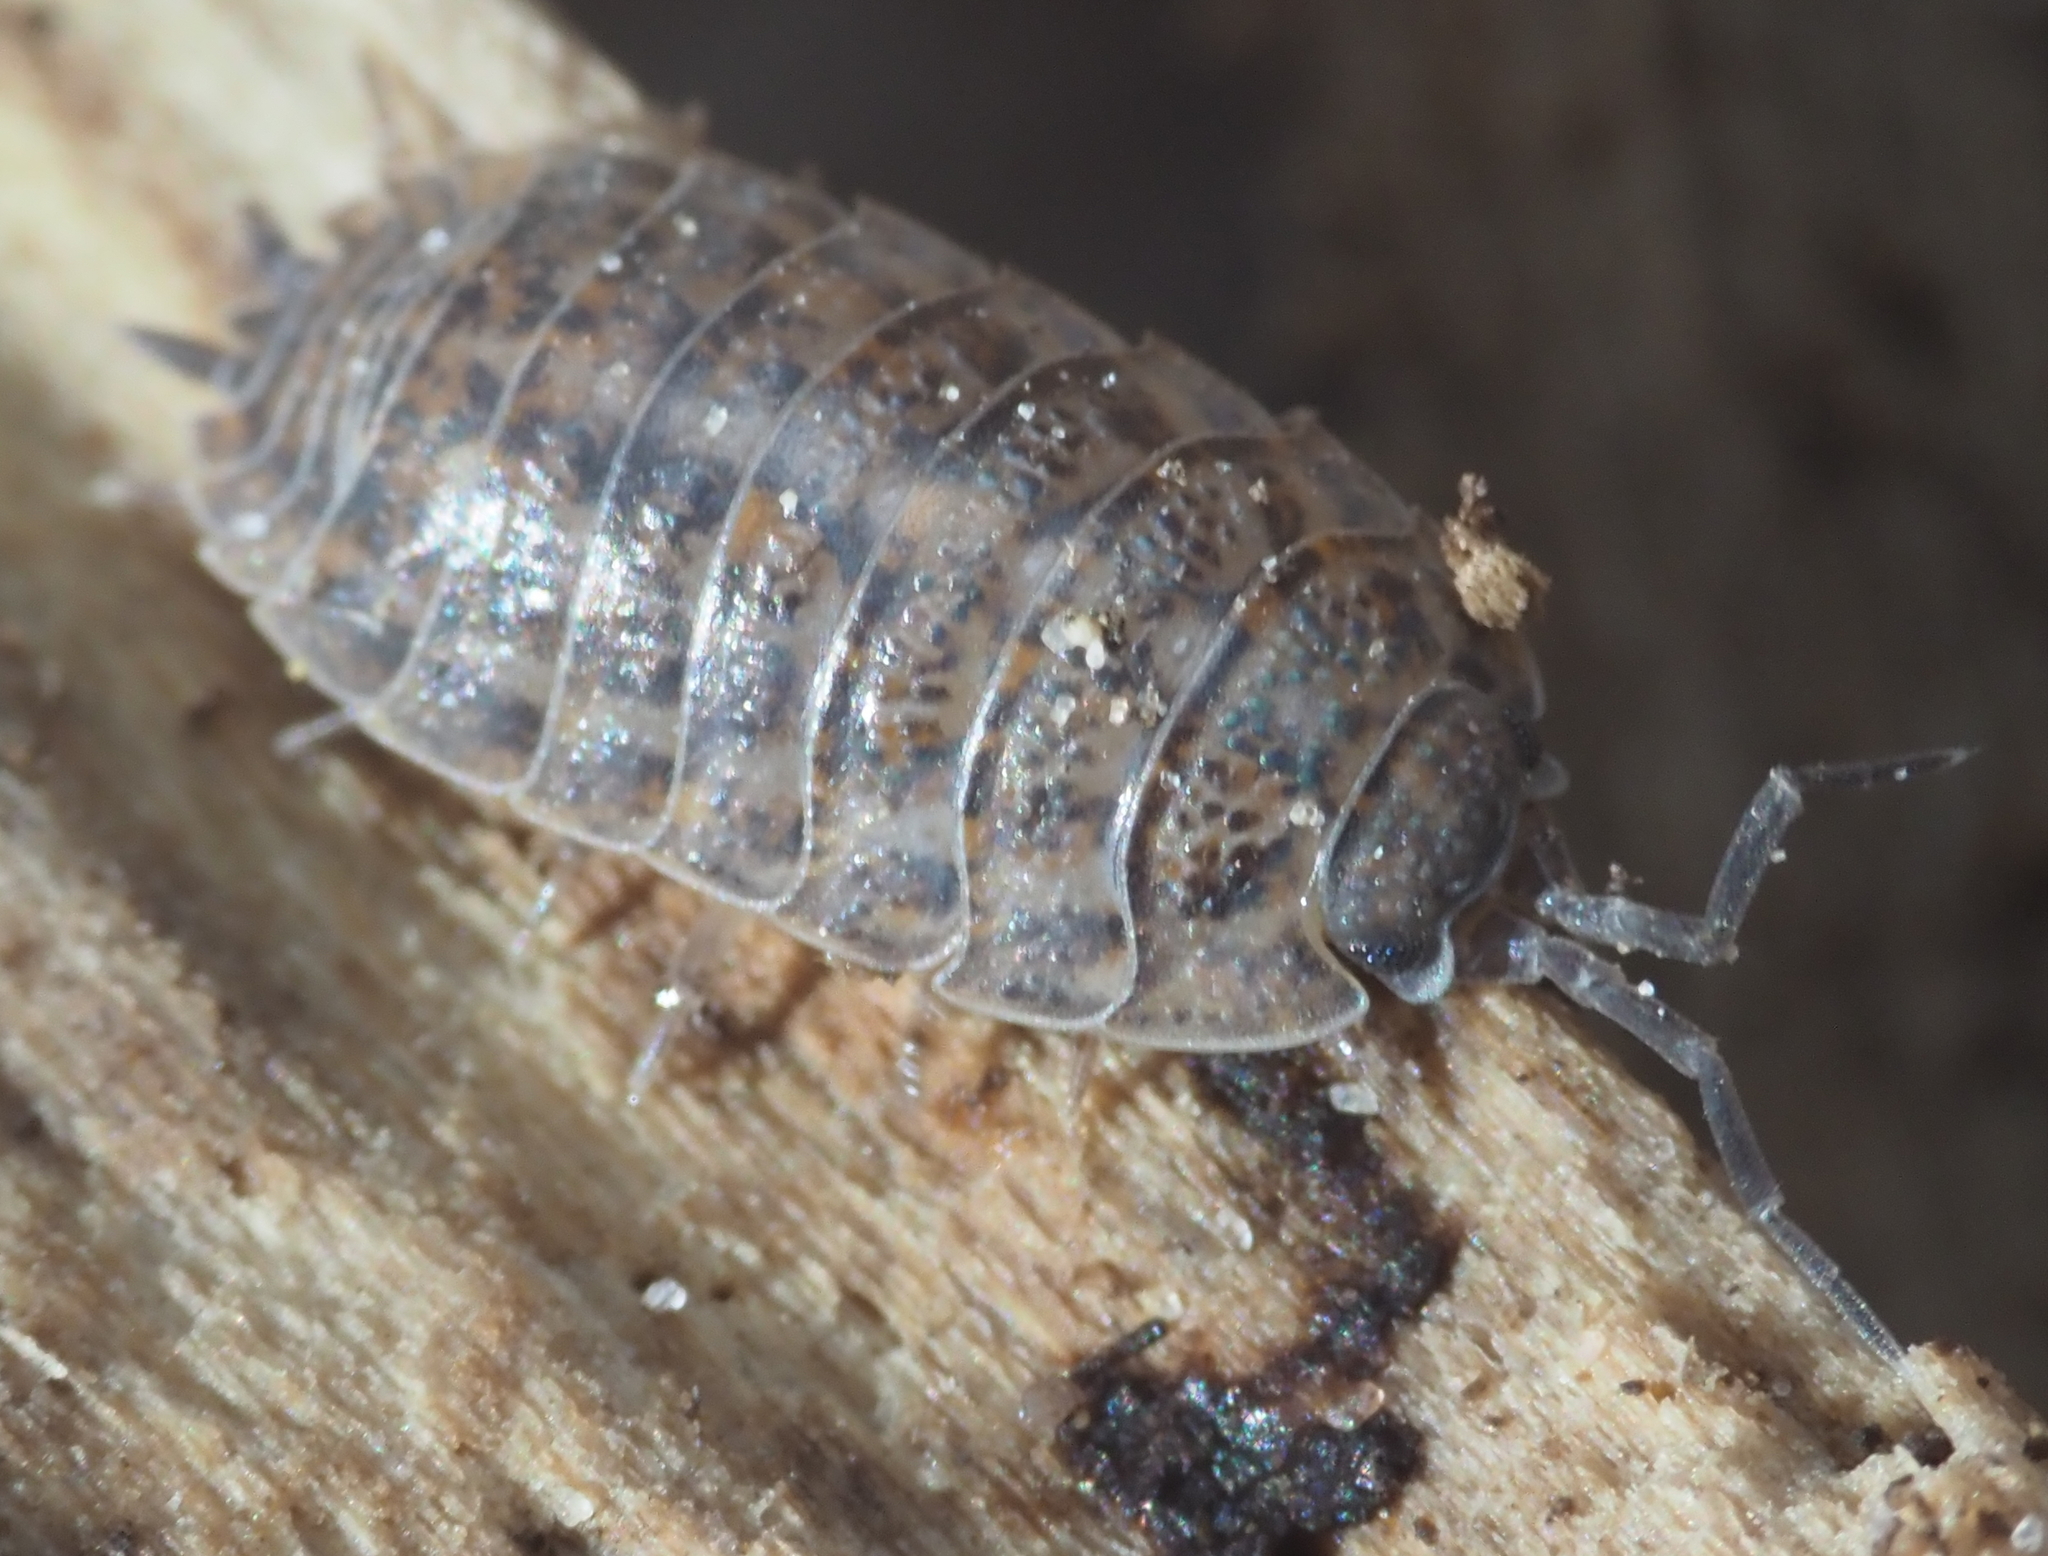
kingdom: Animalia
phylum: Arthropoda
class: Malacostraca
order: Isopoda
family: Trachelipodidae
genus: Trachelipus
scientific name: Trachelipus rathkii
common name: Isopod
